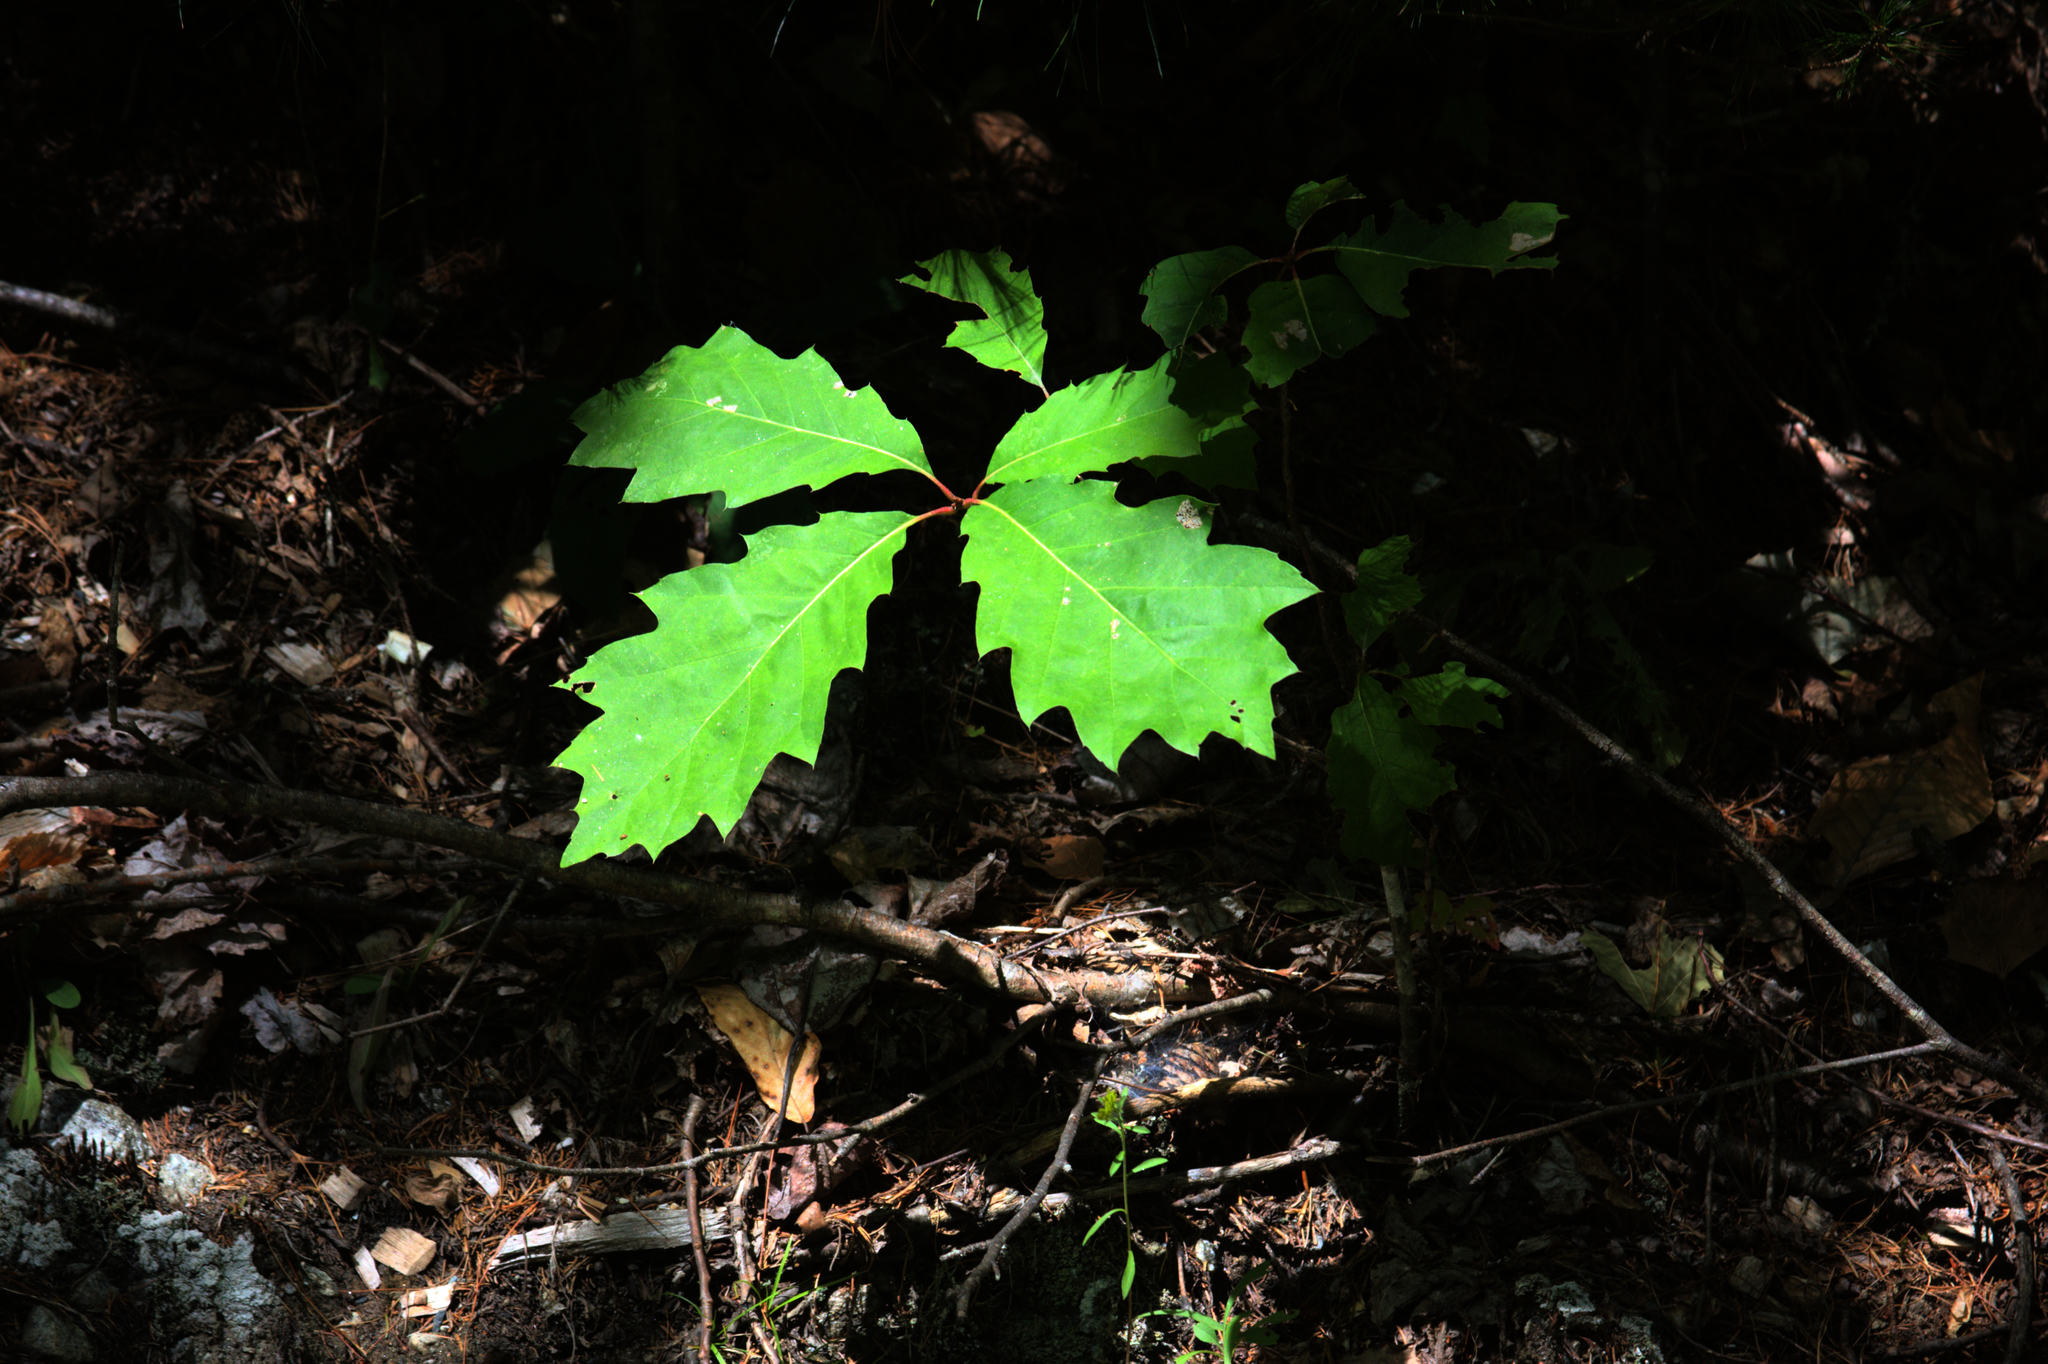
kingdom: Plantae
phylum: Tracheophyta
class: Magnoliopsida
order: Fagales
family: Fagaceae
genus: Quercus
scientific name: Quercus rubra
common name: Red oak
